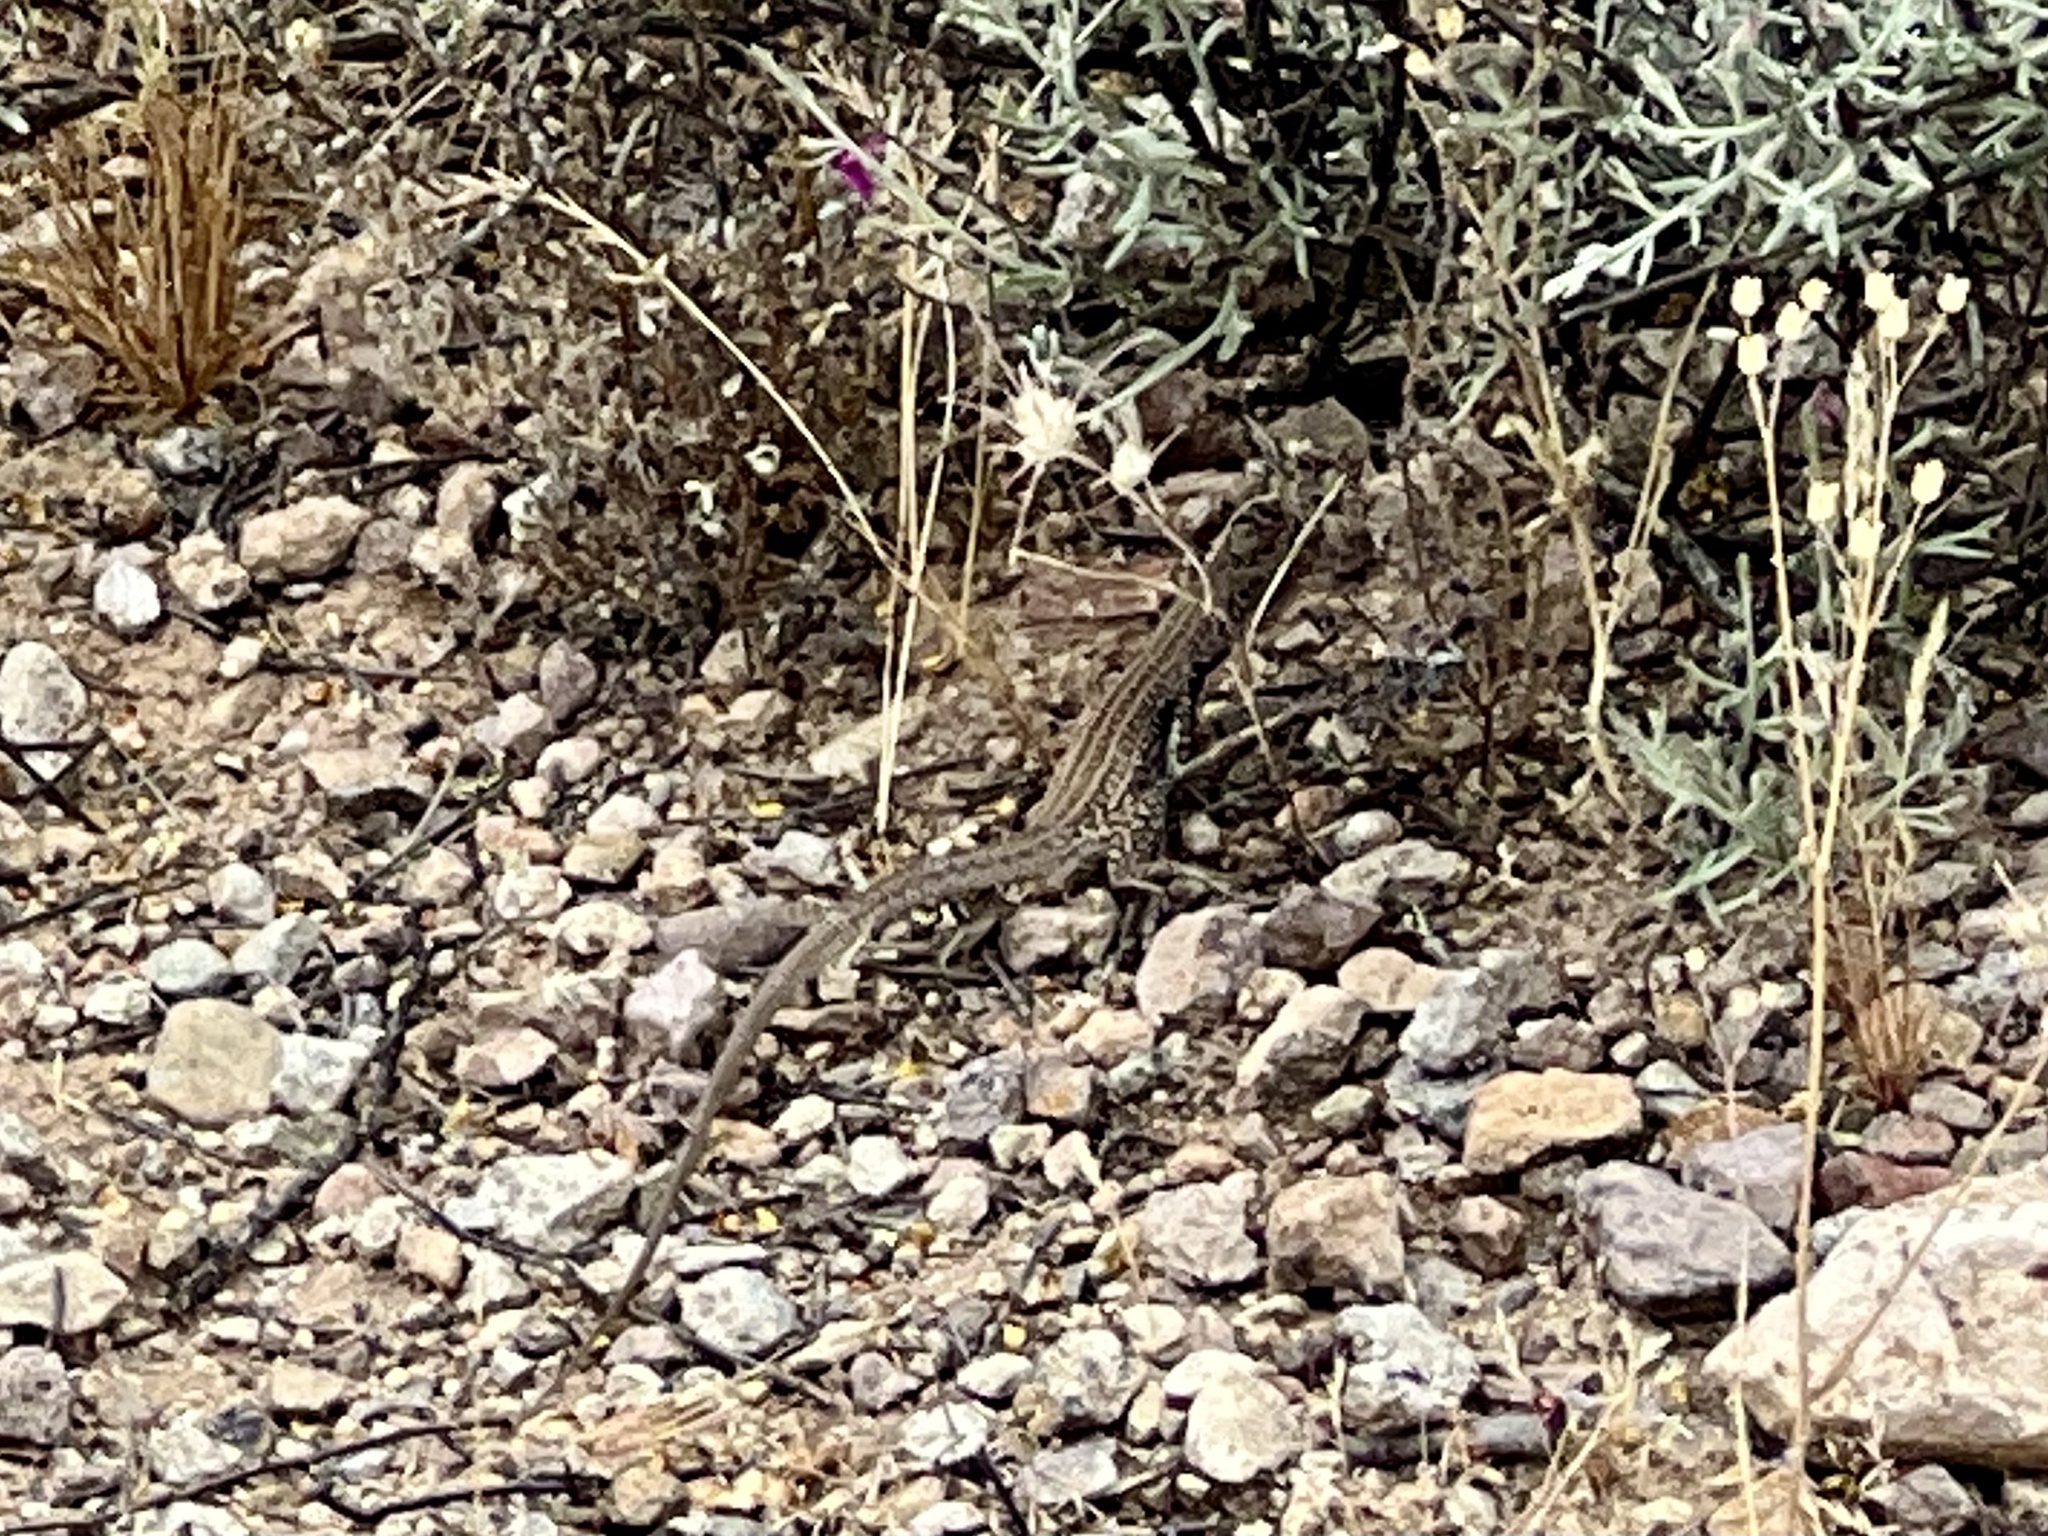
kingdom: Animalia
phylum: Chordata
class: Squamata
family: Teiidae
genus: Aspidoscelis
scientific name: Aspidoscelis tigris
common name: Tiger whiptail
